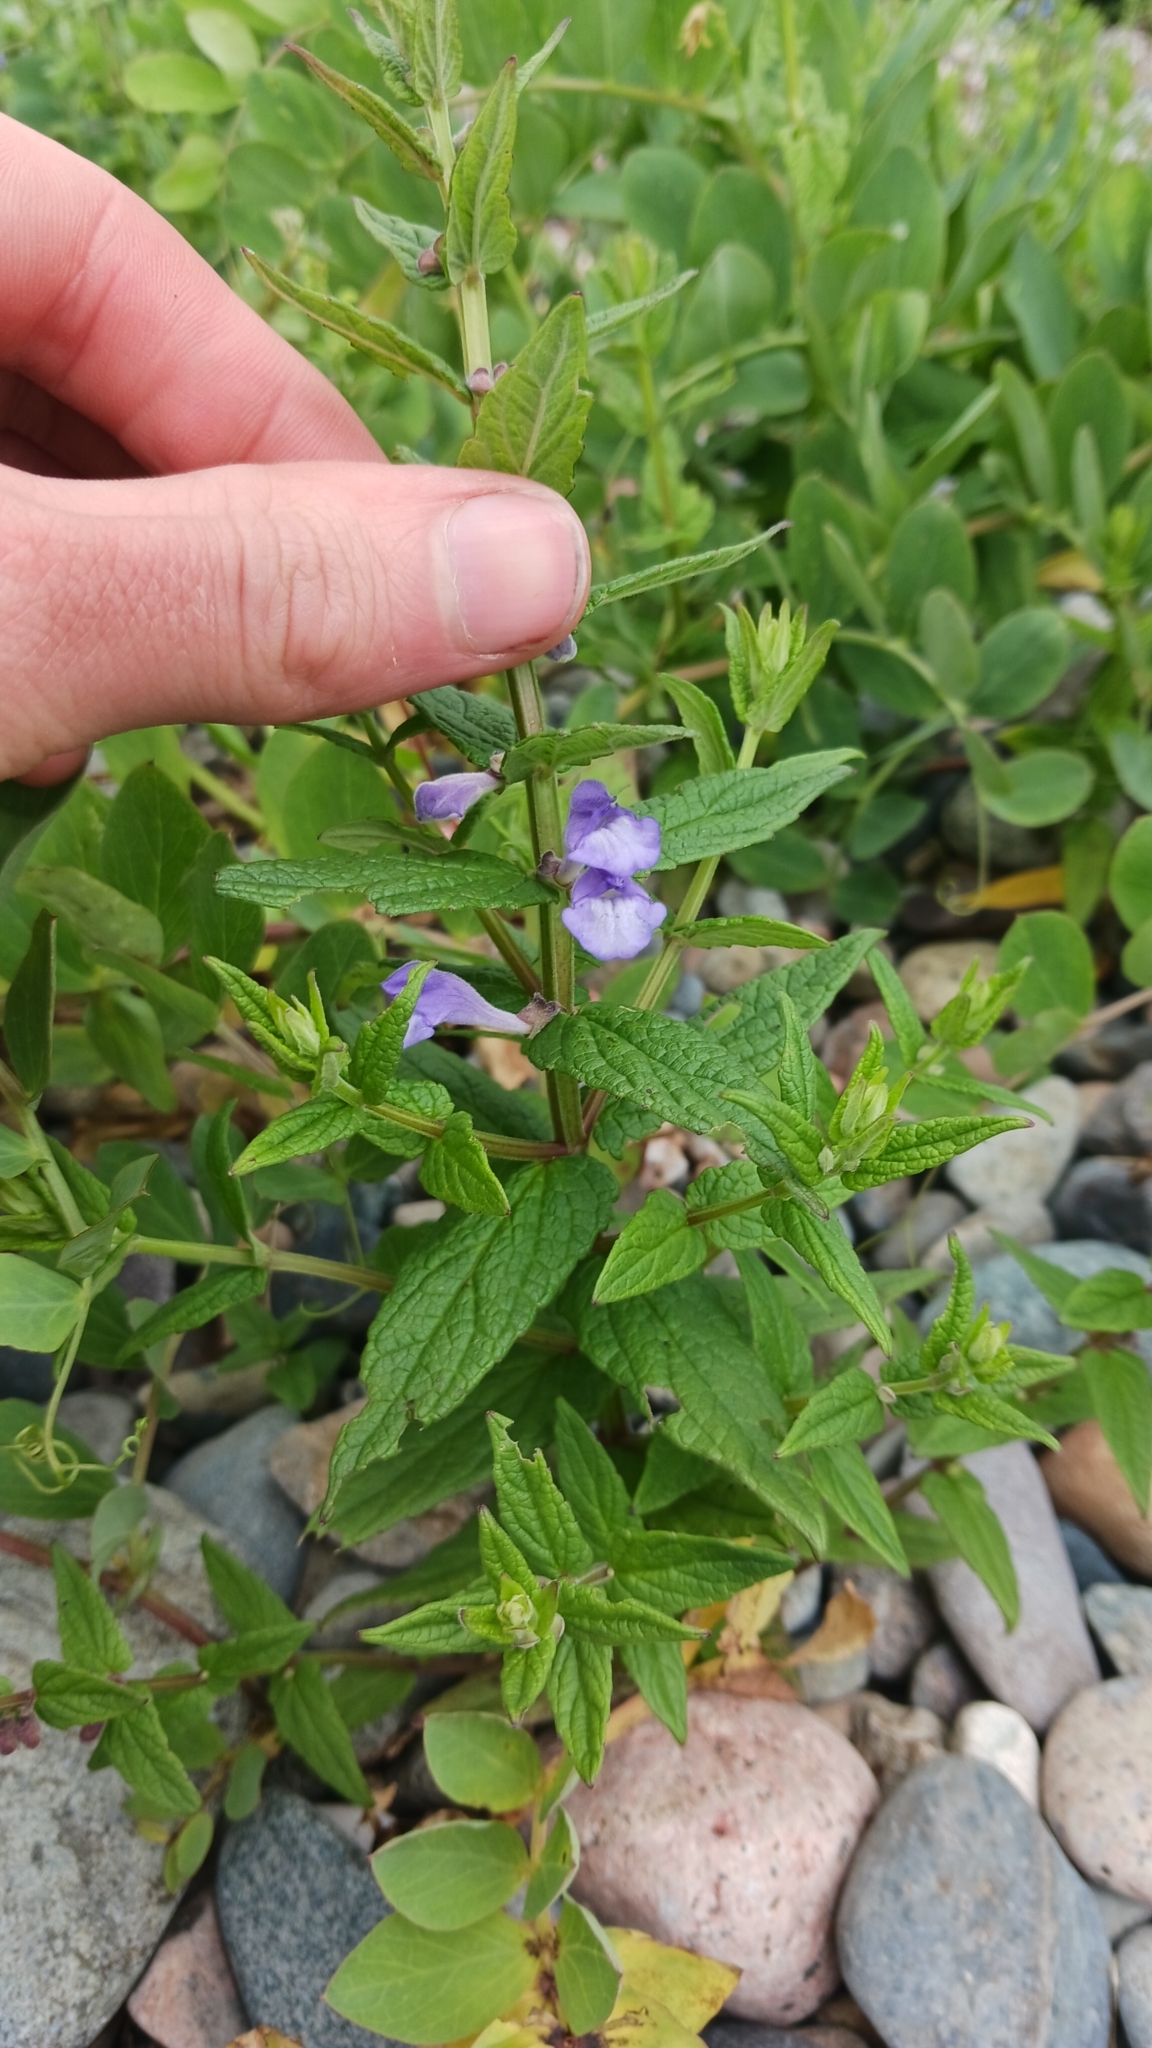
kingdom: Plantae
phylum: Tracheophyta
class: Magnoliopsida
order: Lamiales
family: Lamiaceae
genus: Scutellaria
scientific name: Scutellaria galericulata
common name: Skullcap
